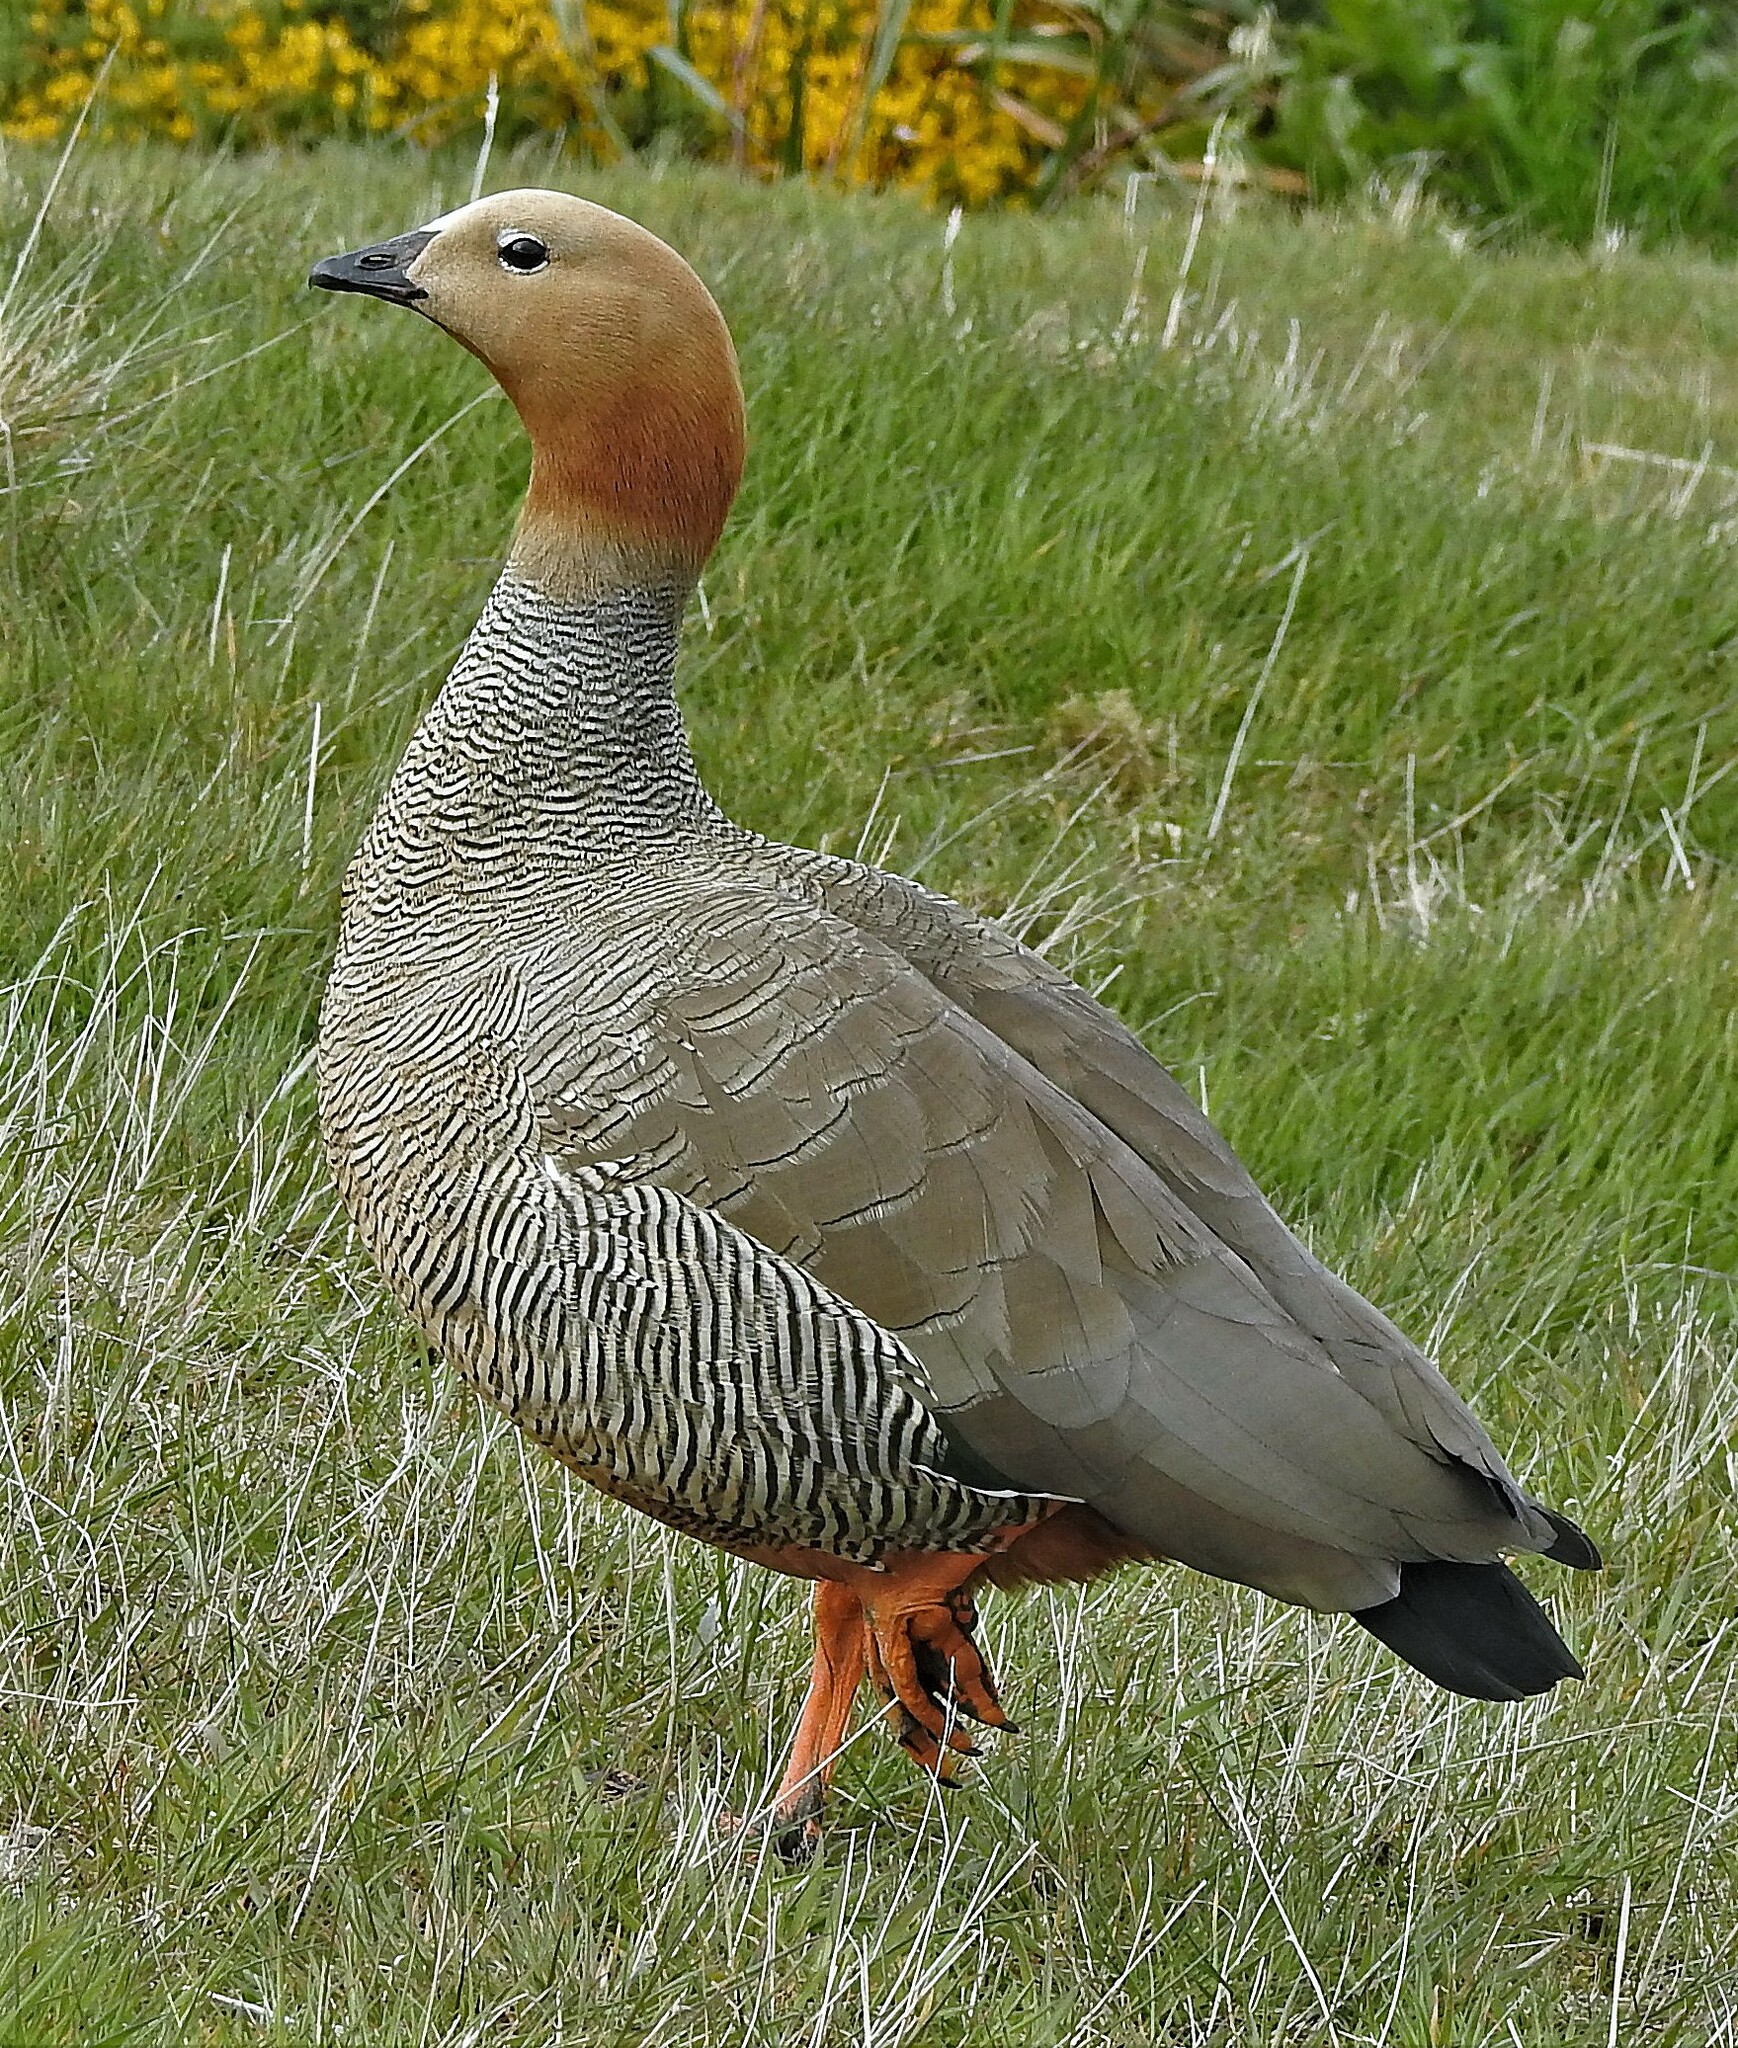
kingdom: Animalia
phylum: Chordata
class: Aves
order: Anseriformes
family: Anatidae
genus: Chloephaga
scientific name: Chloephaga rubidiceps
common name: Ruddy-headed goose
